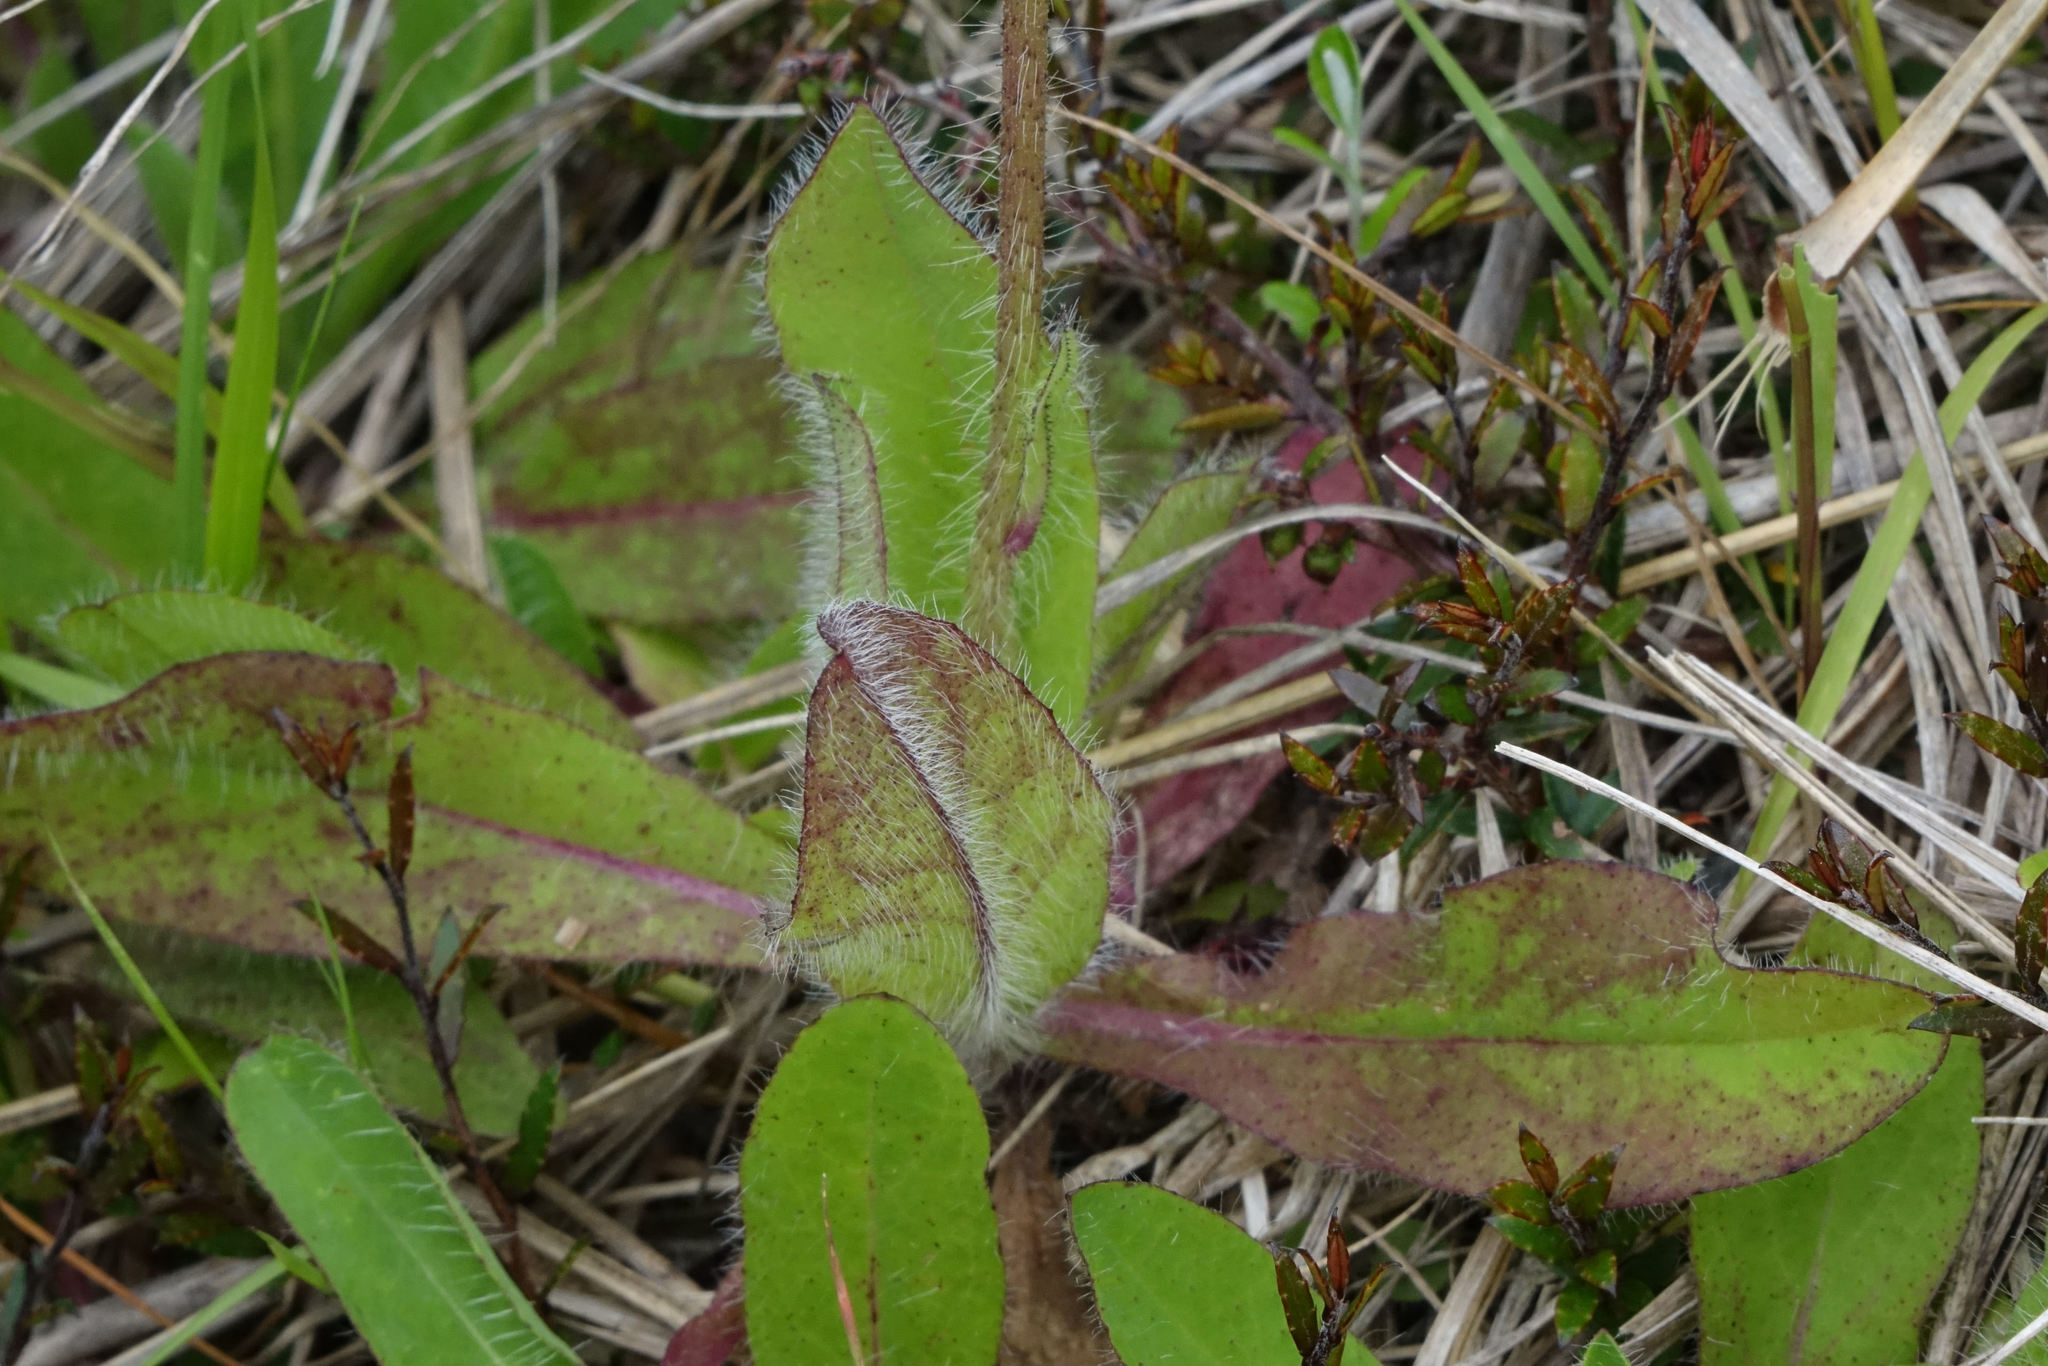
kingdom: Plantae
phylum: Tracheophyta
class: Magnoliopsida
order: Asterales
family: Asteraceae
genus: Pilosella
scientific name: Pilosella aurantiaca
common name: Fox-and-cubs
